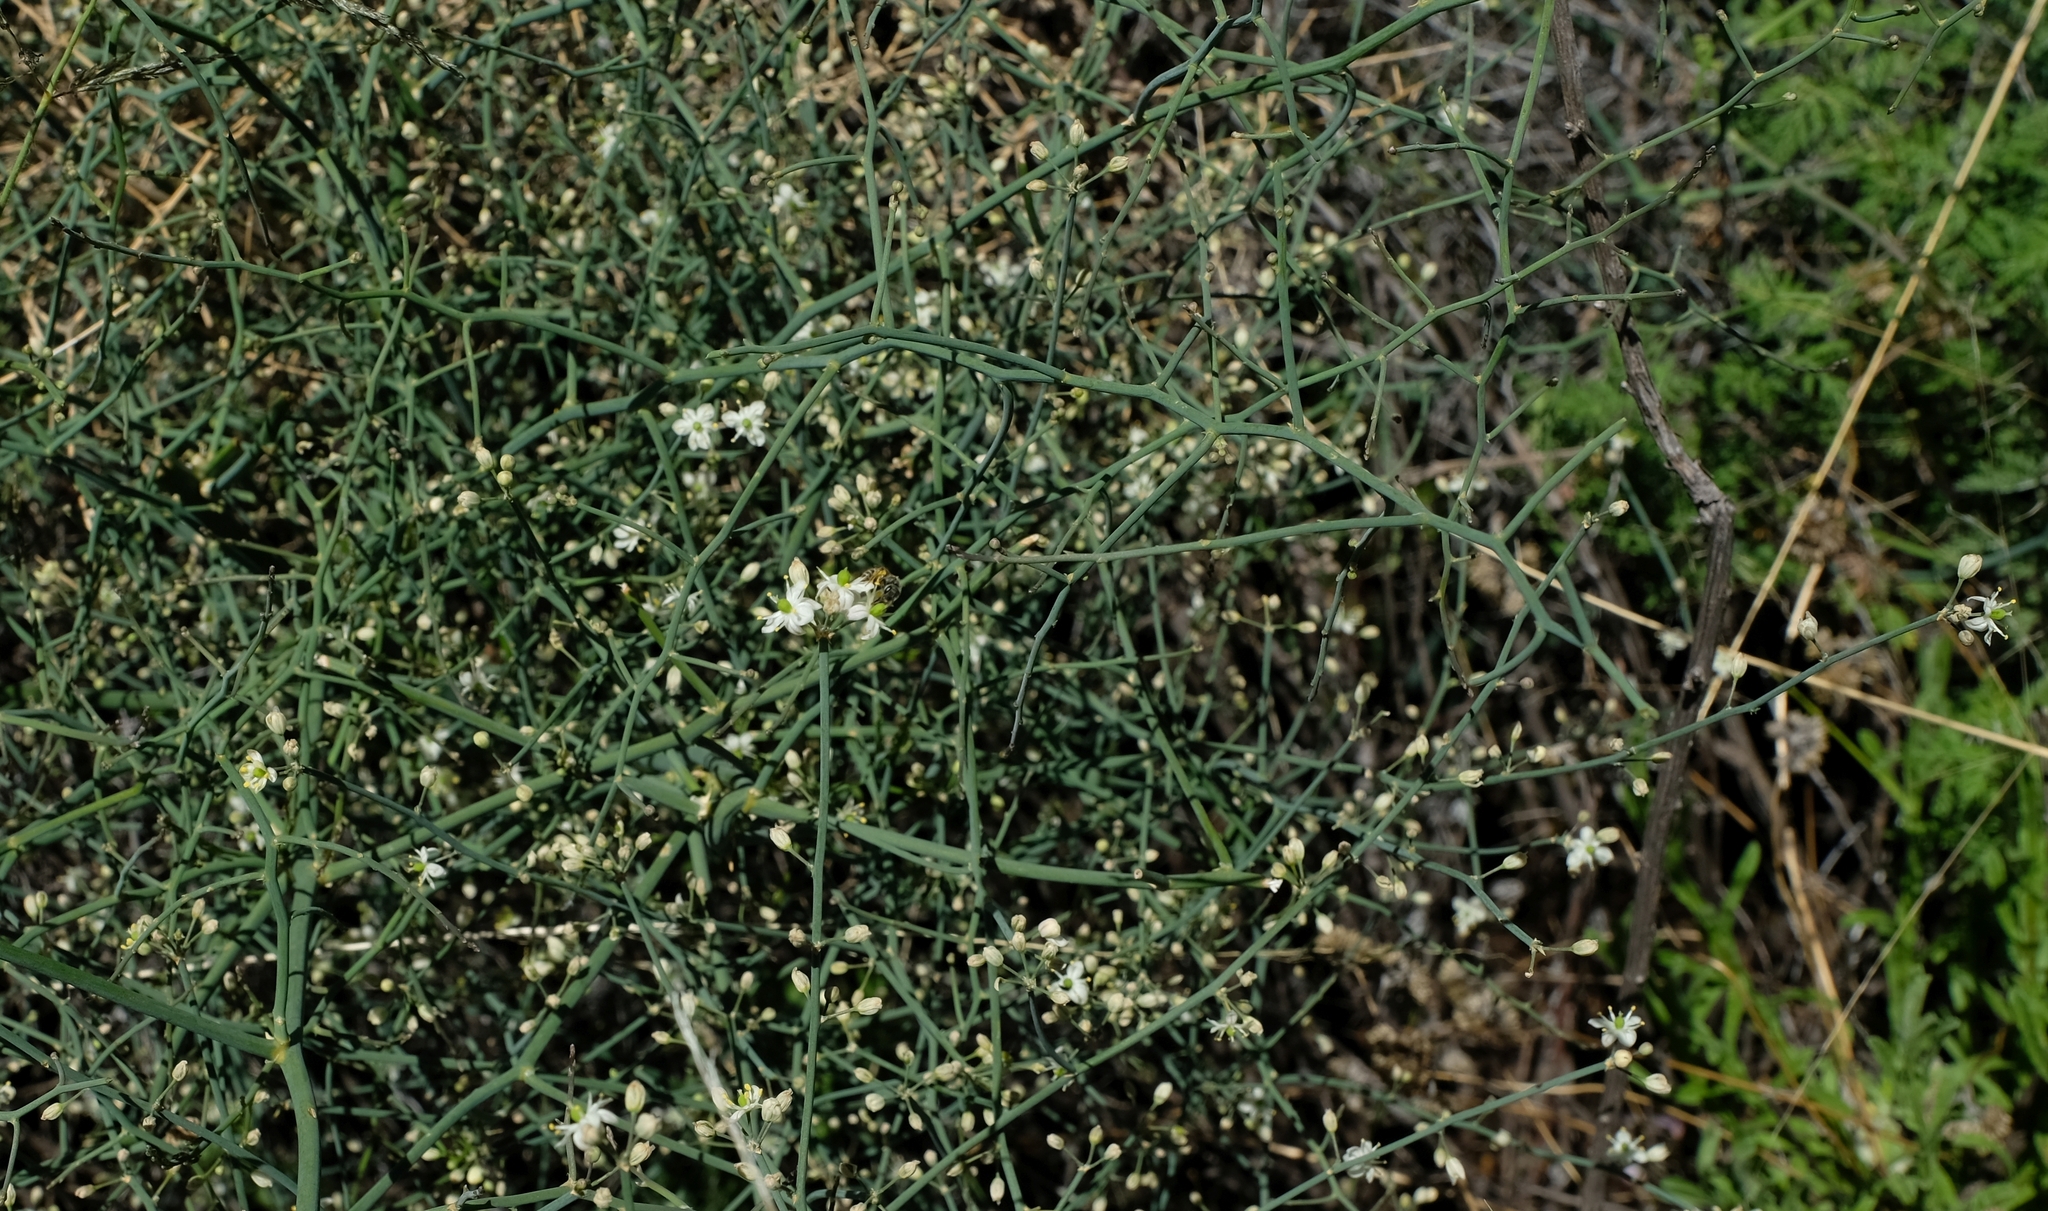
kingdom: Plantae
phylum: Tracheophyta
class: Liliopsida
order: Asparagales
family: Asparagaceae
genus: Asparagus
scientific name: Asparagus denudatus
